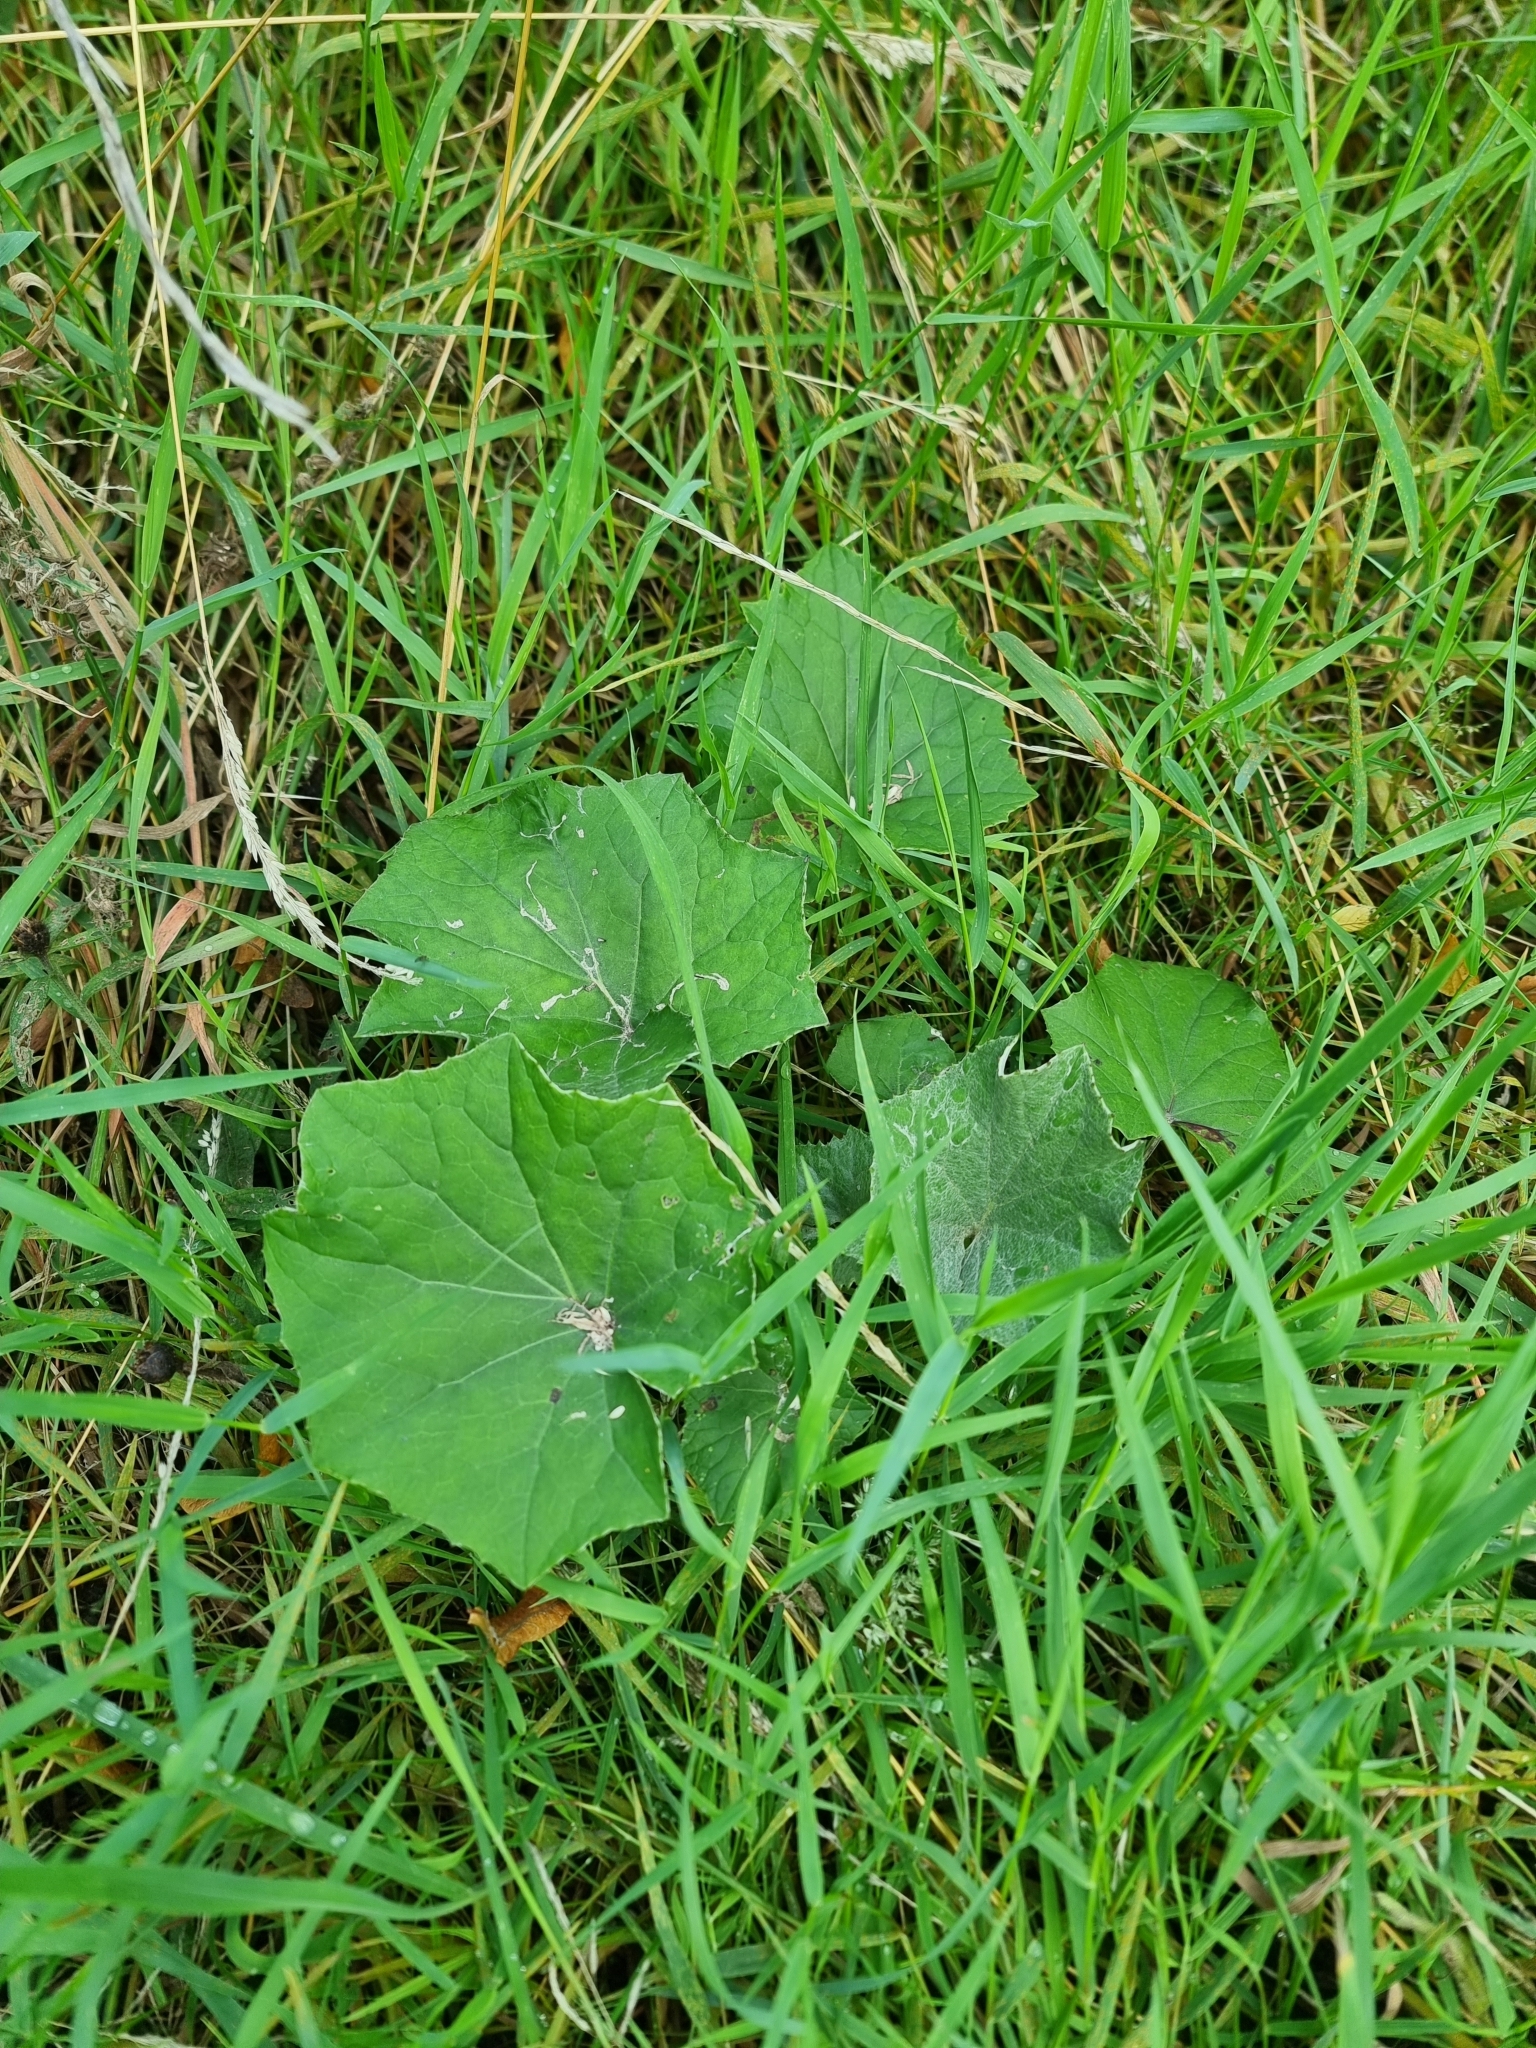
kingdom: Plantae
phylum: Tracheophyta
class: Magnoliopsida
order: Asterales
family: Asteraceae
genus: Tussilago
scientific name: Tussilago farfara
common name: Coltsfoot
